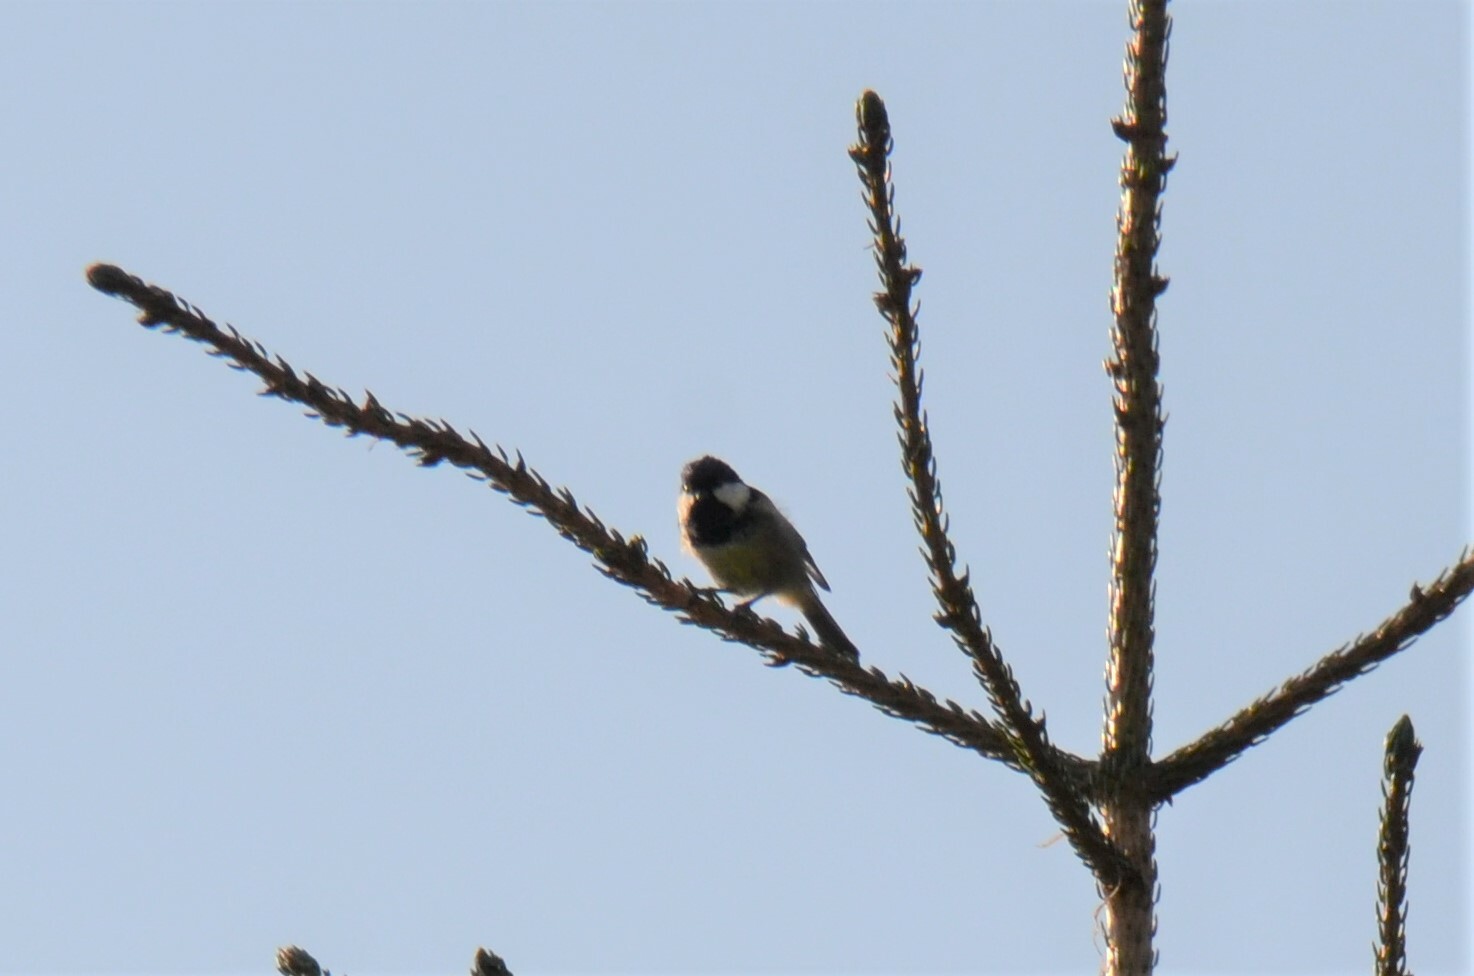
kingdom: Animalia
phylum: Chordata
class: Aves
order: Passeriformes
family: Paridae
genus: Periparus
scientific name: Periparus ater
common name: Coal tit
